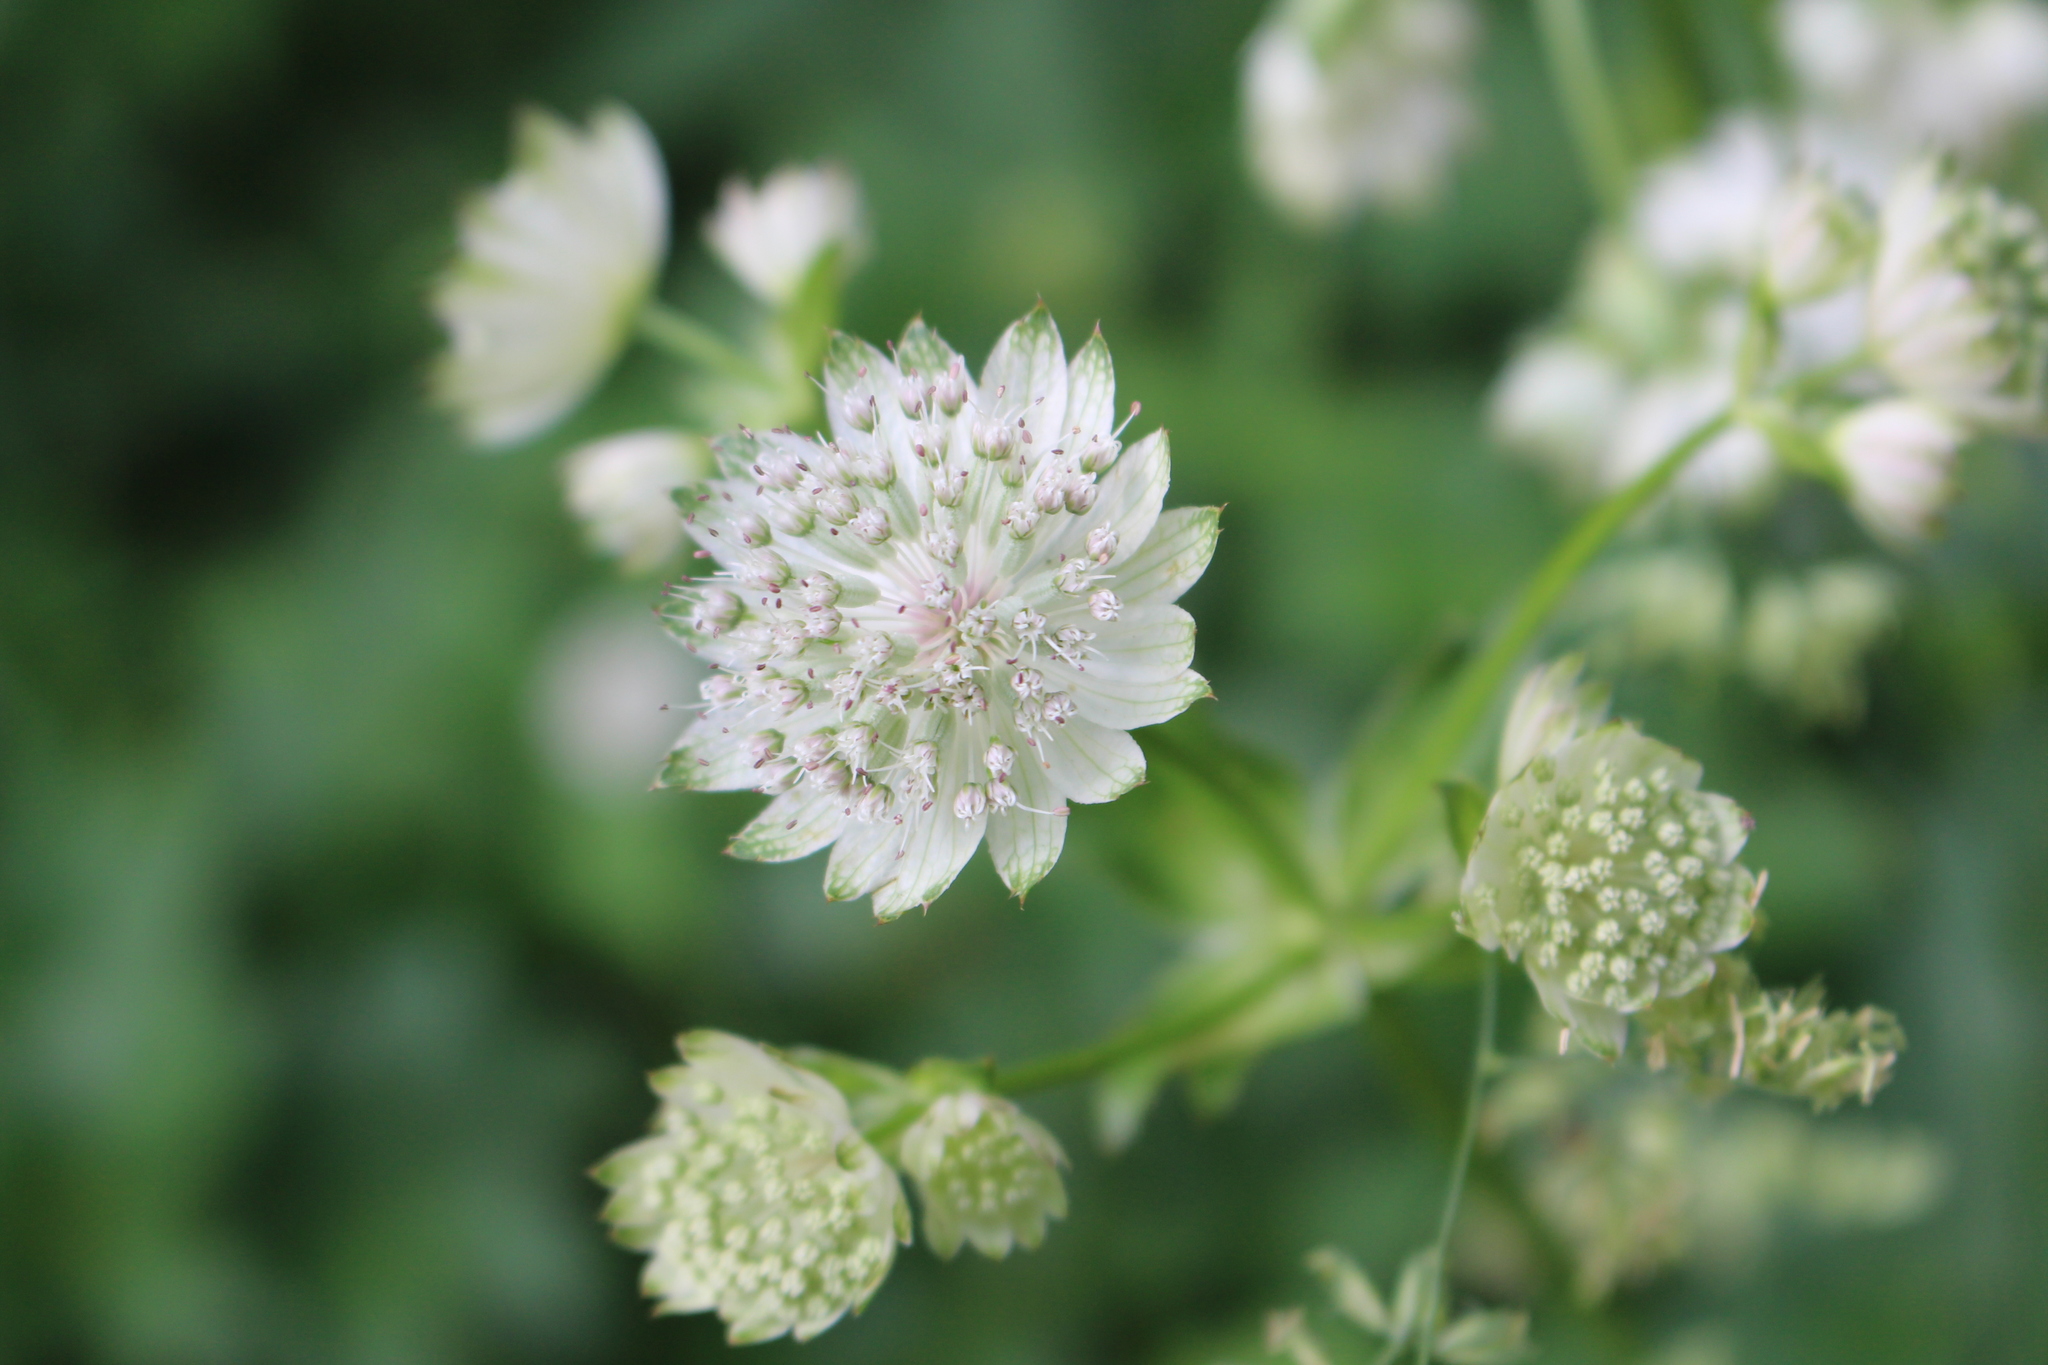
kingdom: Plantae
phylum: Tracheophyta
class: Magnoliopsida
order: Apiales
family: Apiaceae
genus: Astrantia
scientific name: Astrantia major
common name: Greater masterwort
